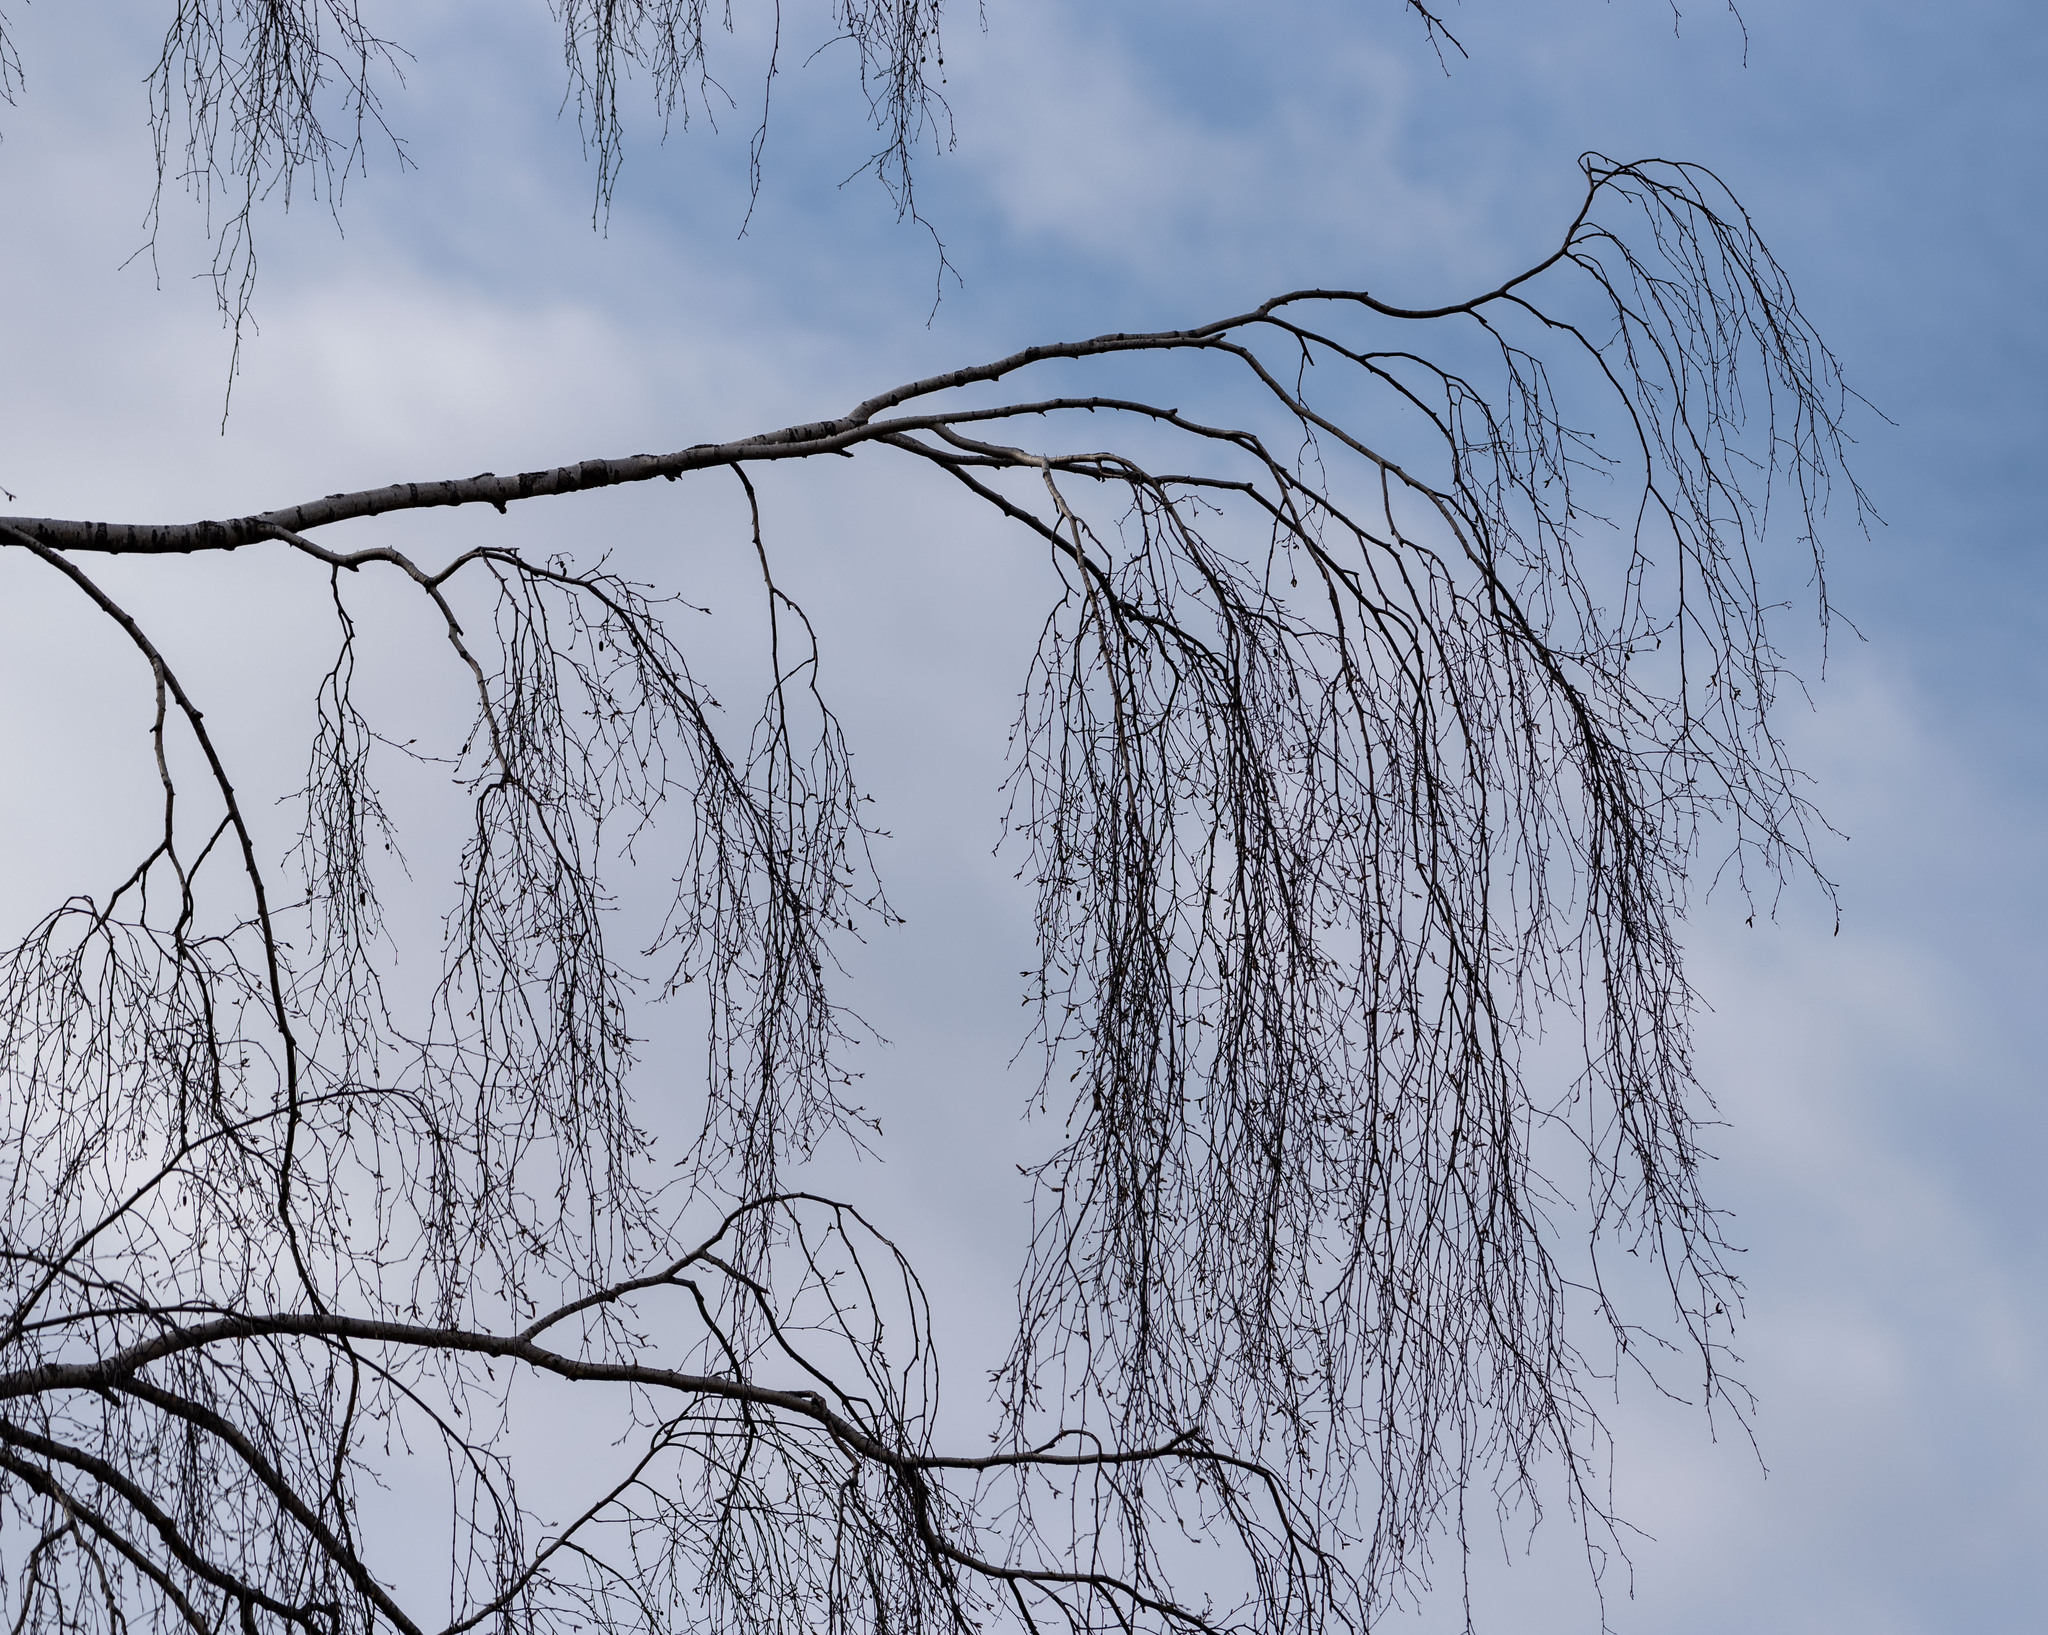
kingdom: Plantae
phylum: Tracheophyta
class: Magnoliopsida
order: Fagales
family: Betulaceae
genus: Betula
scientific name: Betula pendula
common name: Silver birch
